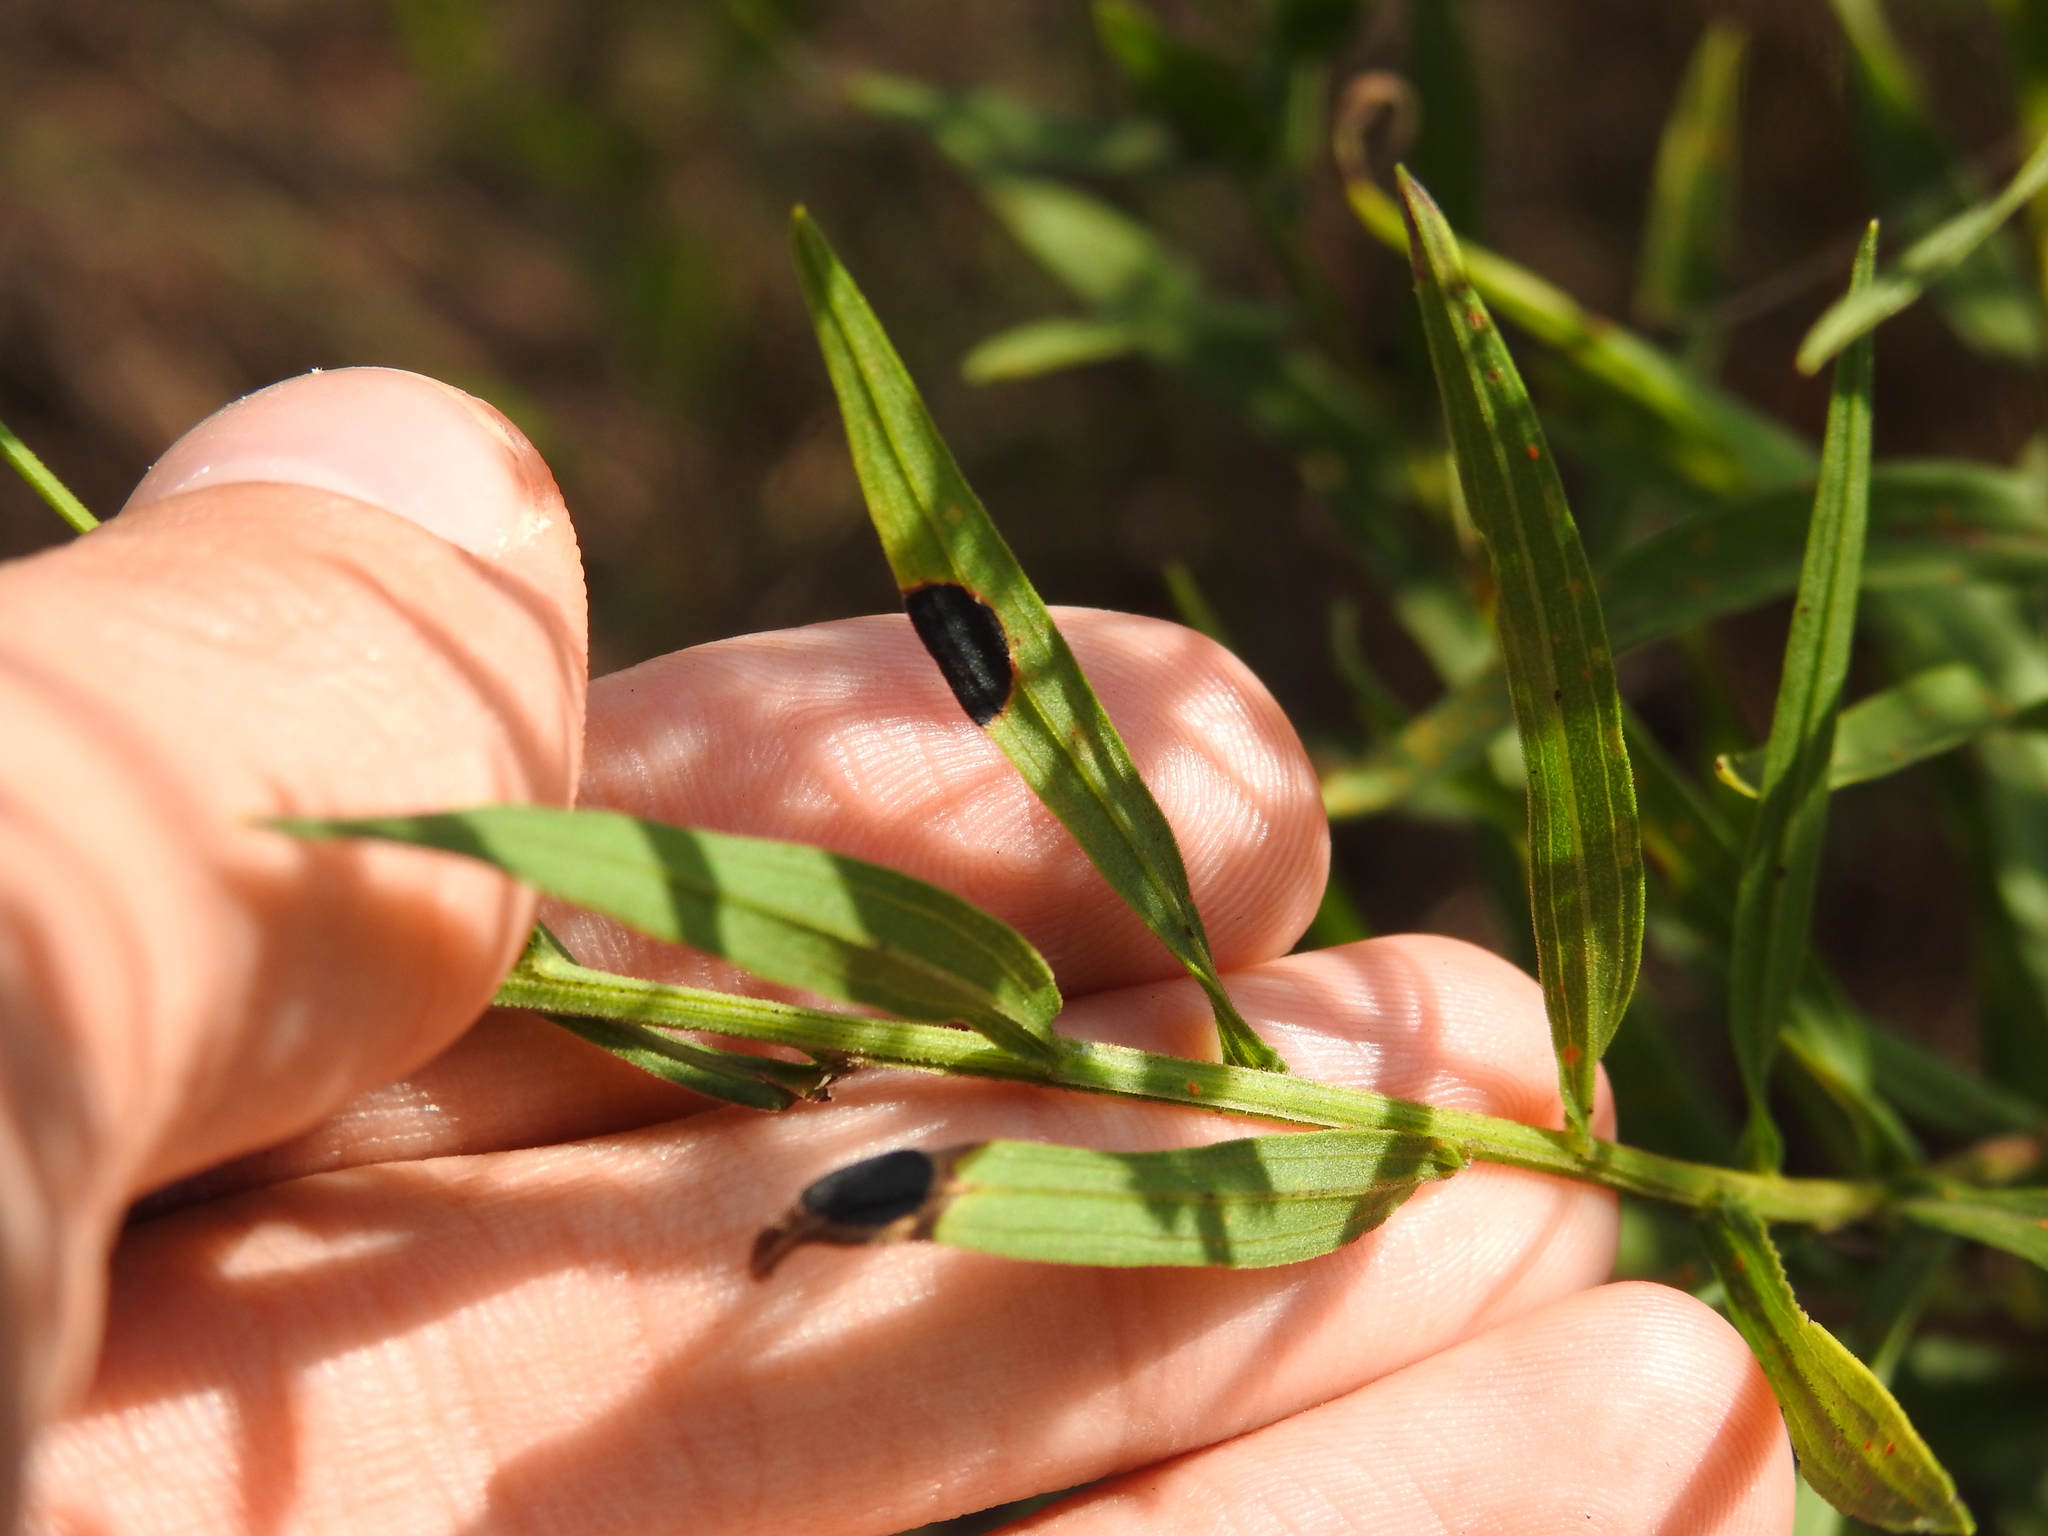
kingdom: Animalia
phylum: Arthropoda
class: Insecta
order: Diptera
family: Cecidomyiidae
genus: Asteromyia
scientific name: Asteromyia euthamiae
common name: Euthamia leaf gall midge
